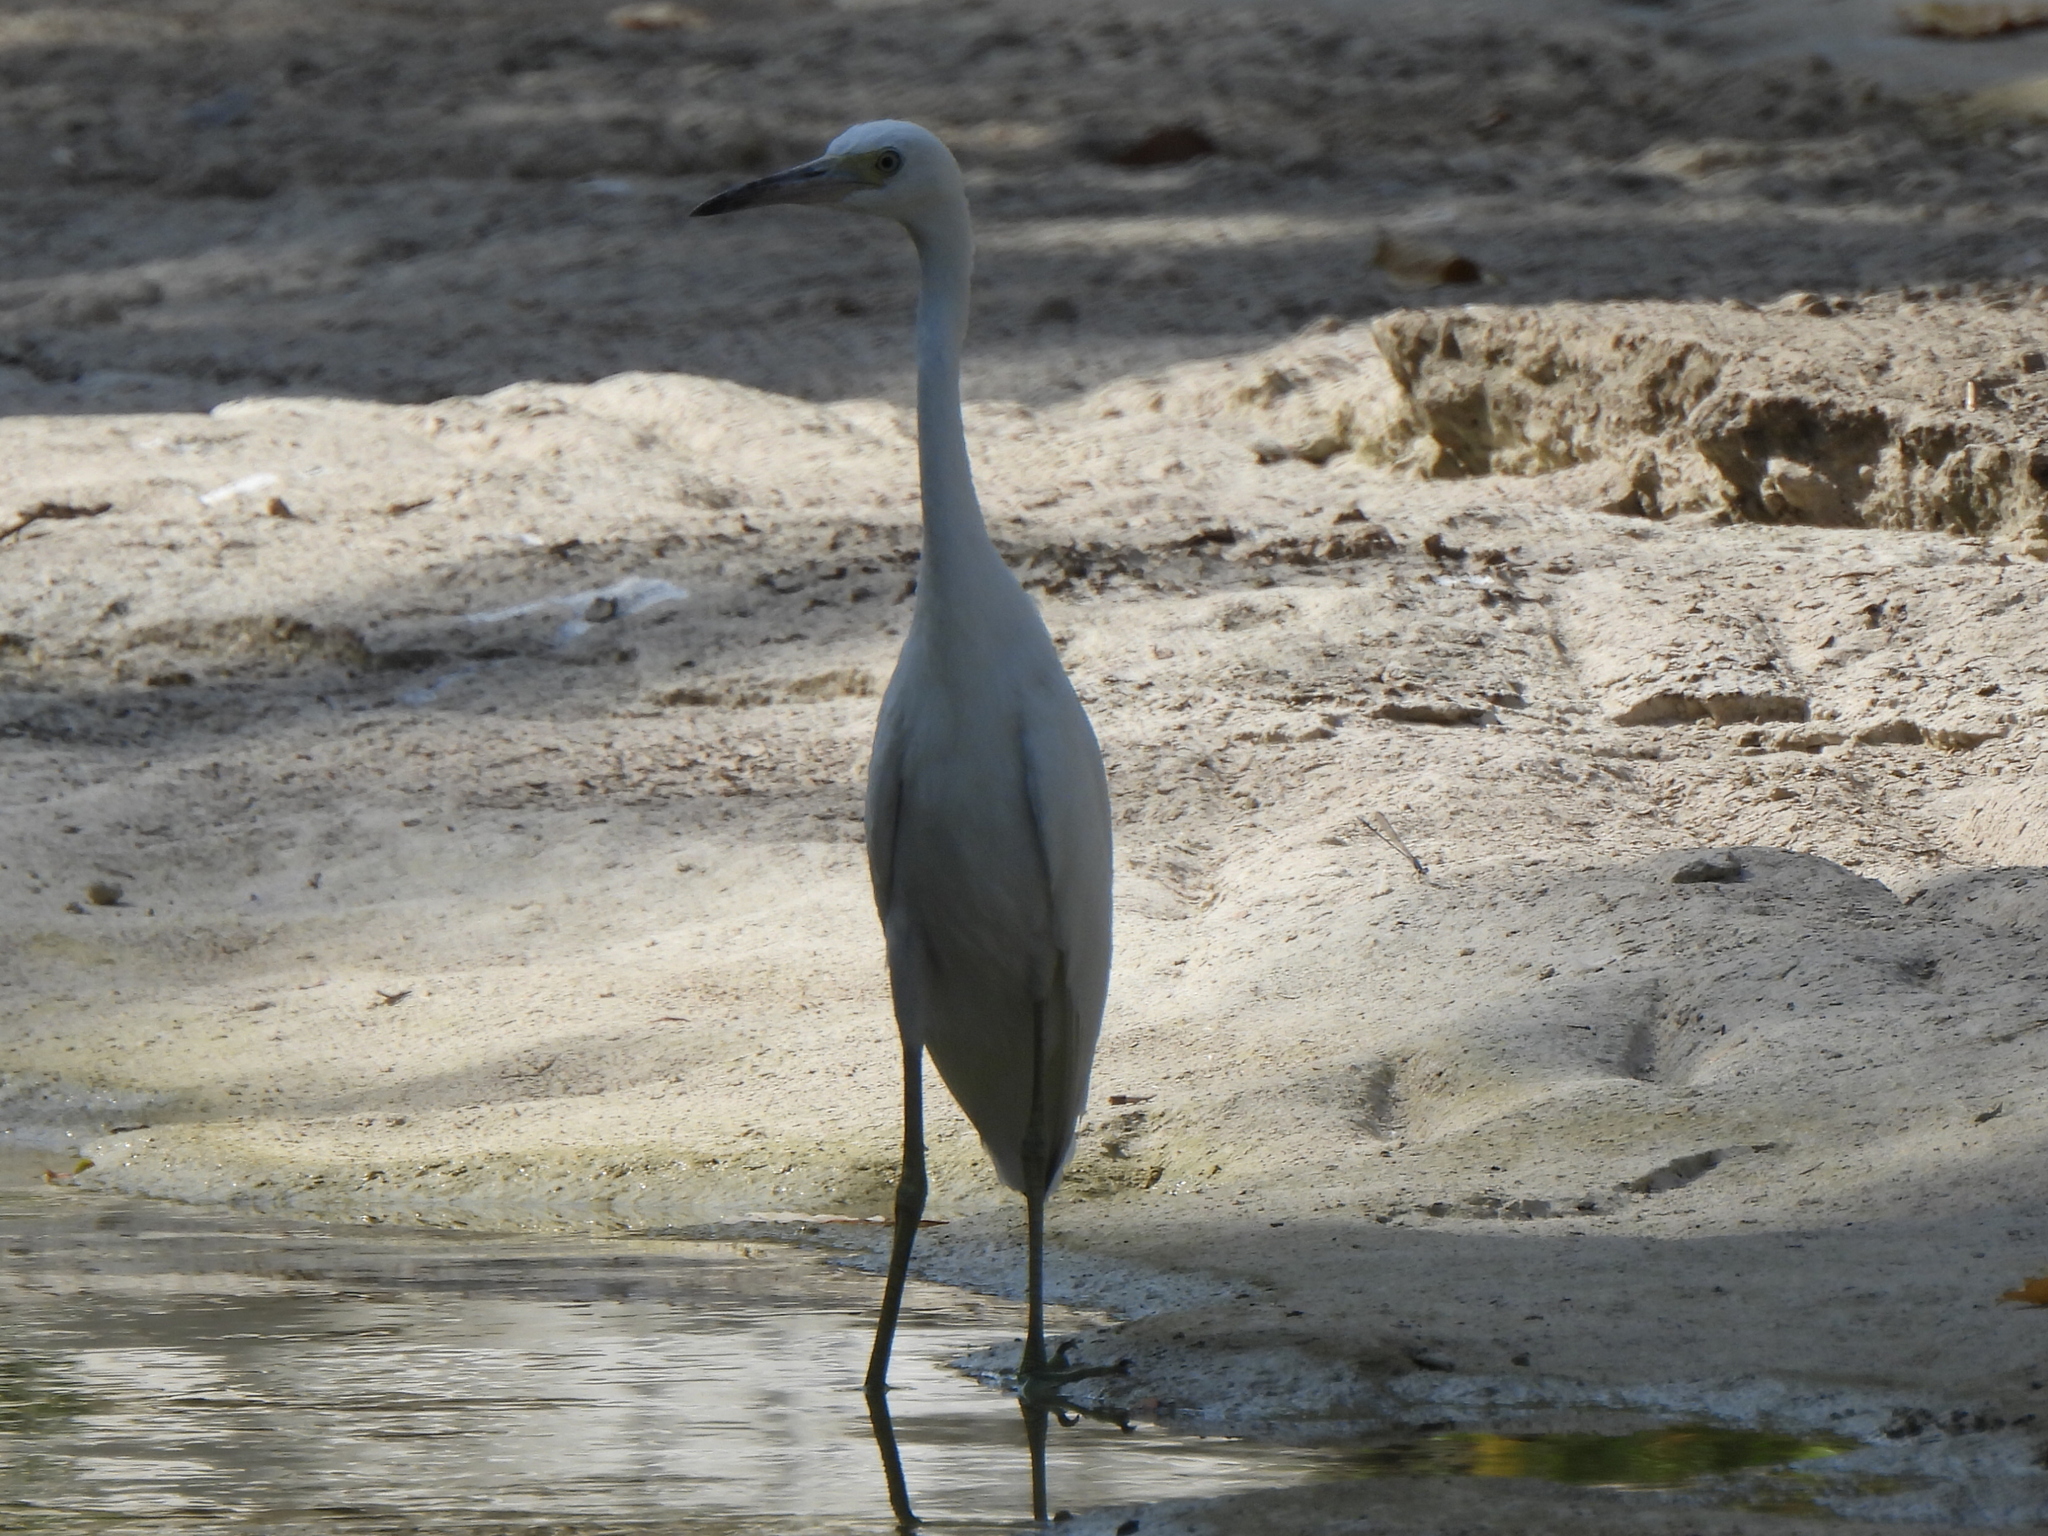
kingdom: Animalia
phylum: Chordata
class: Aves
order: Pelecaniformes
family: Ardeidae
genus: Egretta
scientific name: Egretta caerulea
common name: Little blue heron
